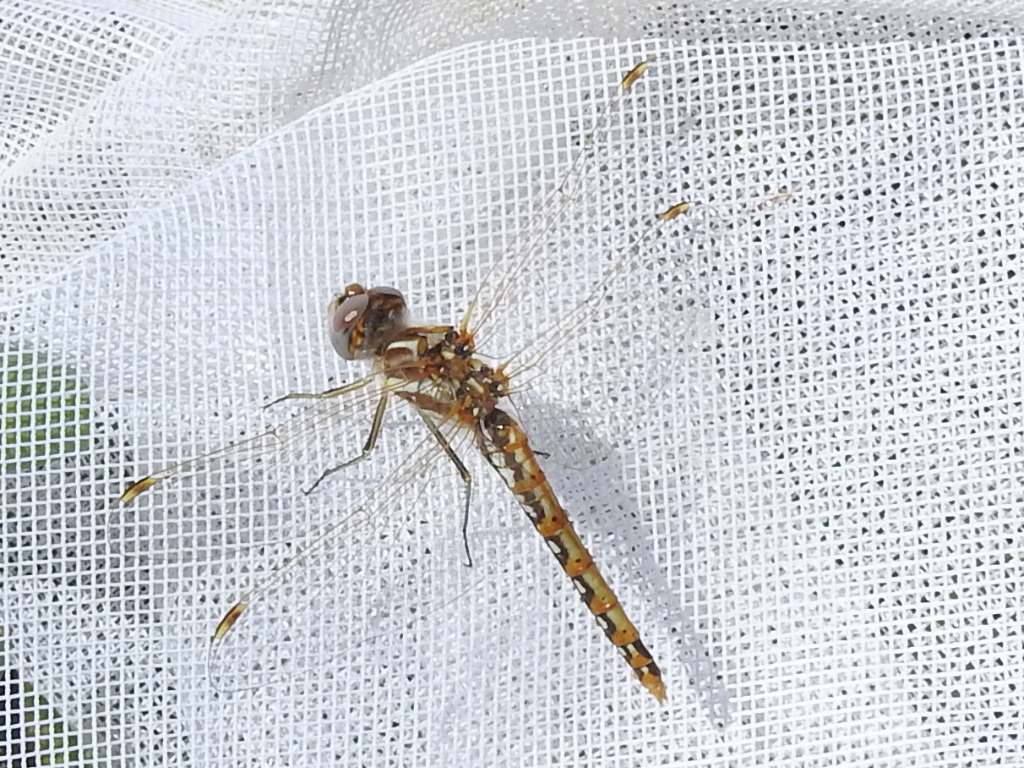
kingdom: Animalia
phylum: Arthropoda
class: Insecta
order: Odonata
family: Libellulidae
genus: Sympetrum
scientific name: Sympetrum corruptum
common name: Variegated meadowhawk
